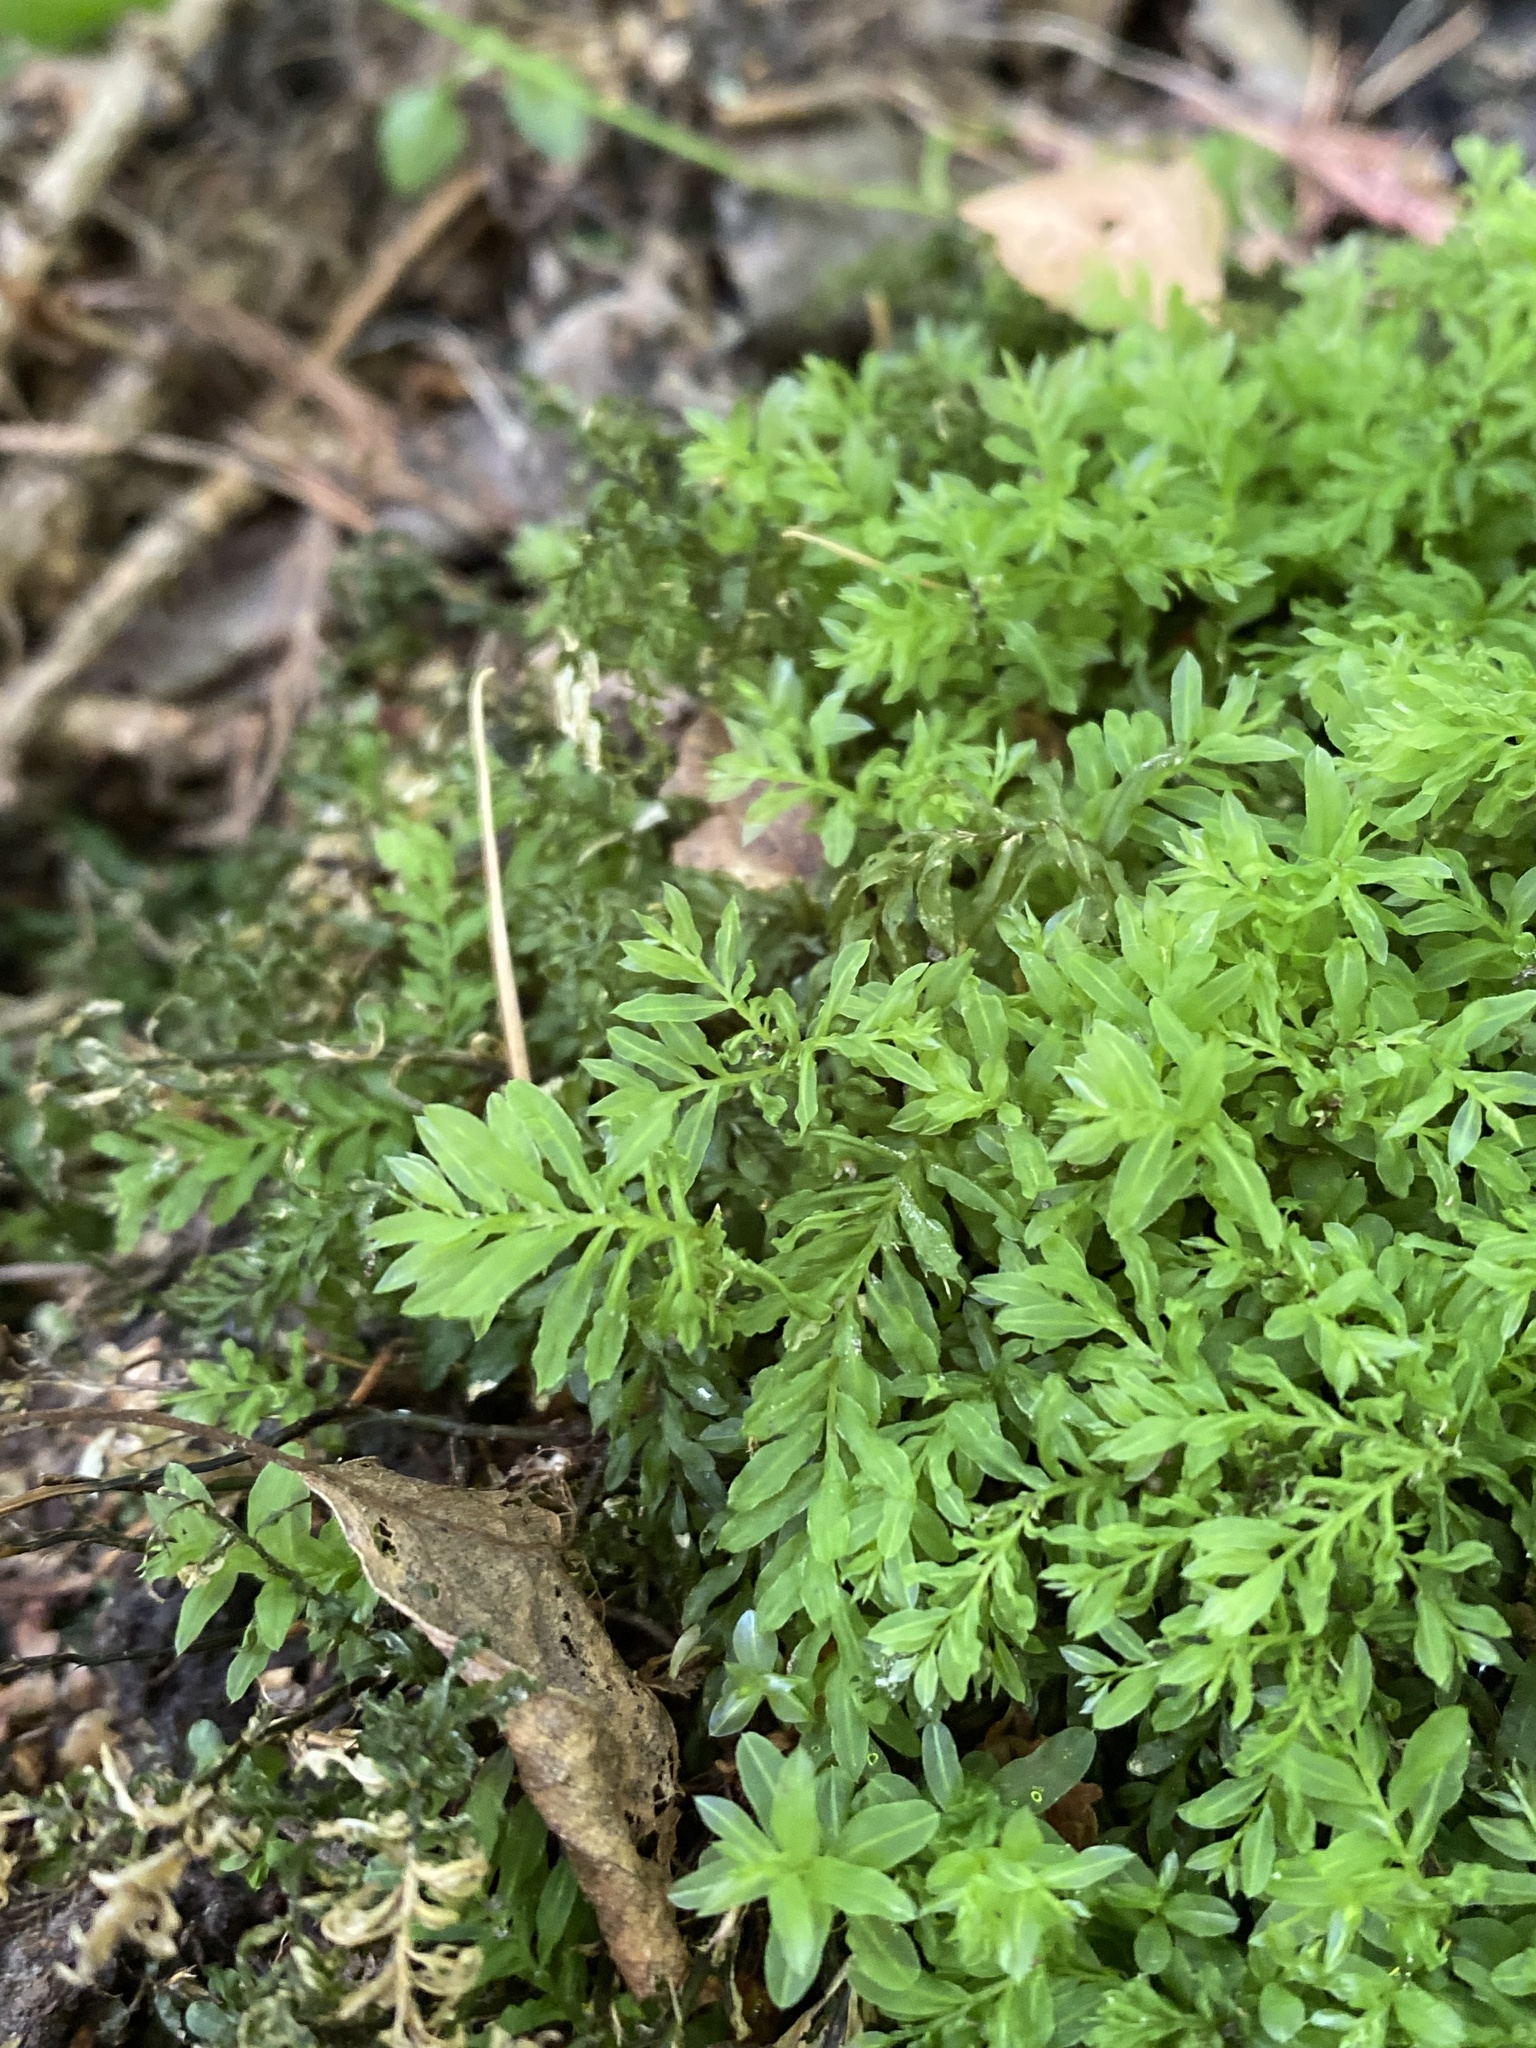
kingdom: Plantae
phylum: Bryophyta
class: Bryopsida
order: Bryales
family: Mniaceae
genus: Plagiomnium
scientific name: Plagiomnium undulatum
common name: Hart's-tongue thyme-moss
